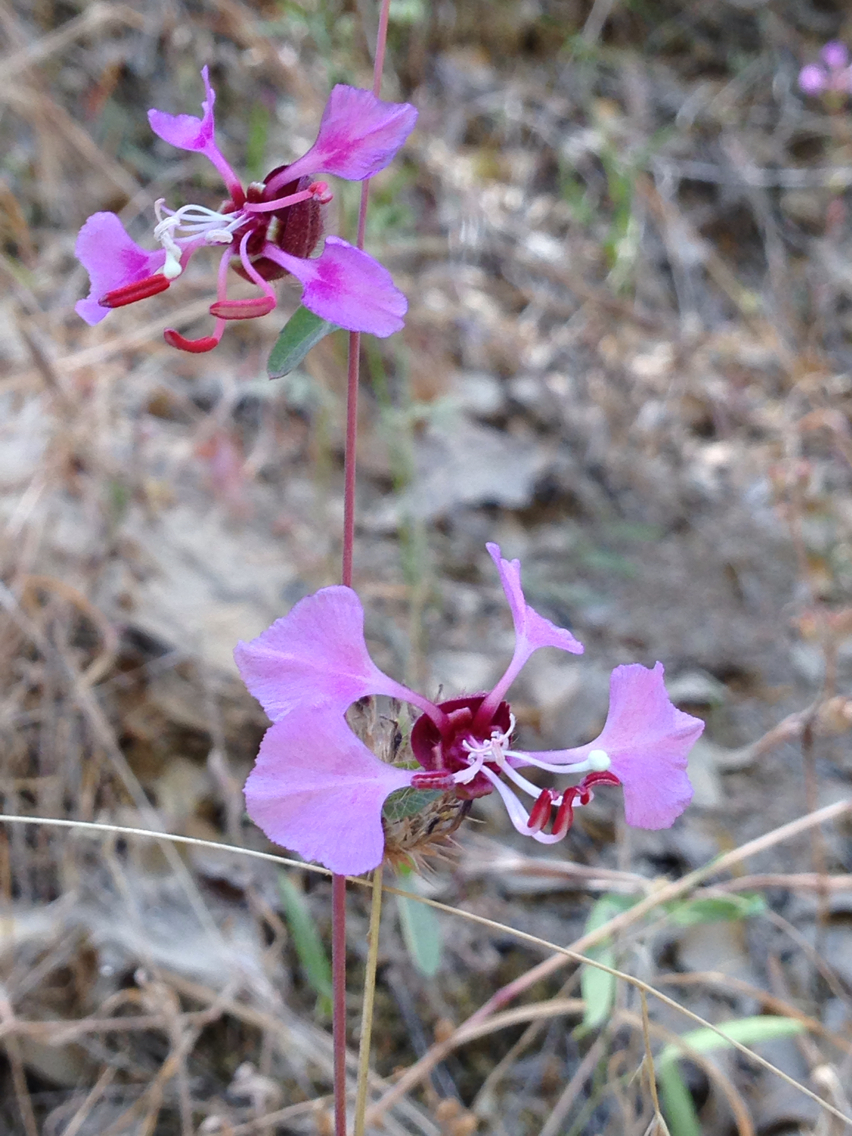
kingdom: Plantae
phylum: Tracheophyta
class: Magnoliopsida
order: Myrtales
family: Onagraceae
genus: Clarkia
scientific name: Clarkia unguiculata
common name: Clarkia
